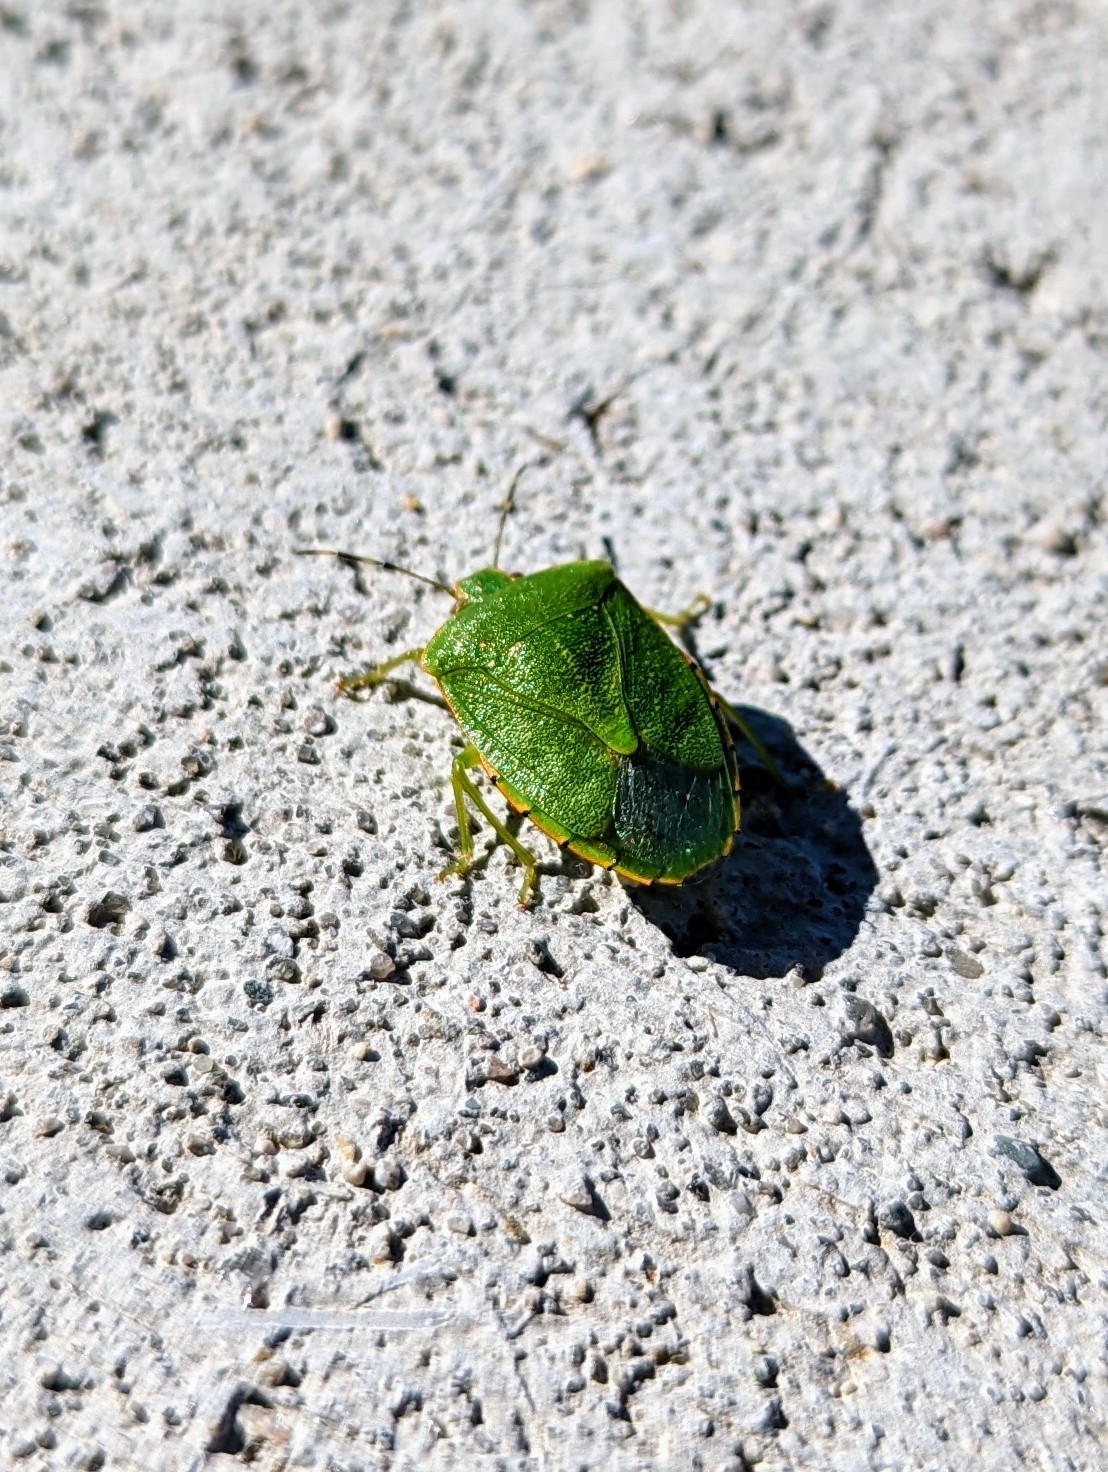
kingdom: Animalia
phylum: Arthropoda
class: Insecta
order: Hemiptera
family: Pentatomidae
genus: Chinavia
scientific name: Chinavia hilaris
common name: Green stink bug
